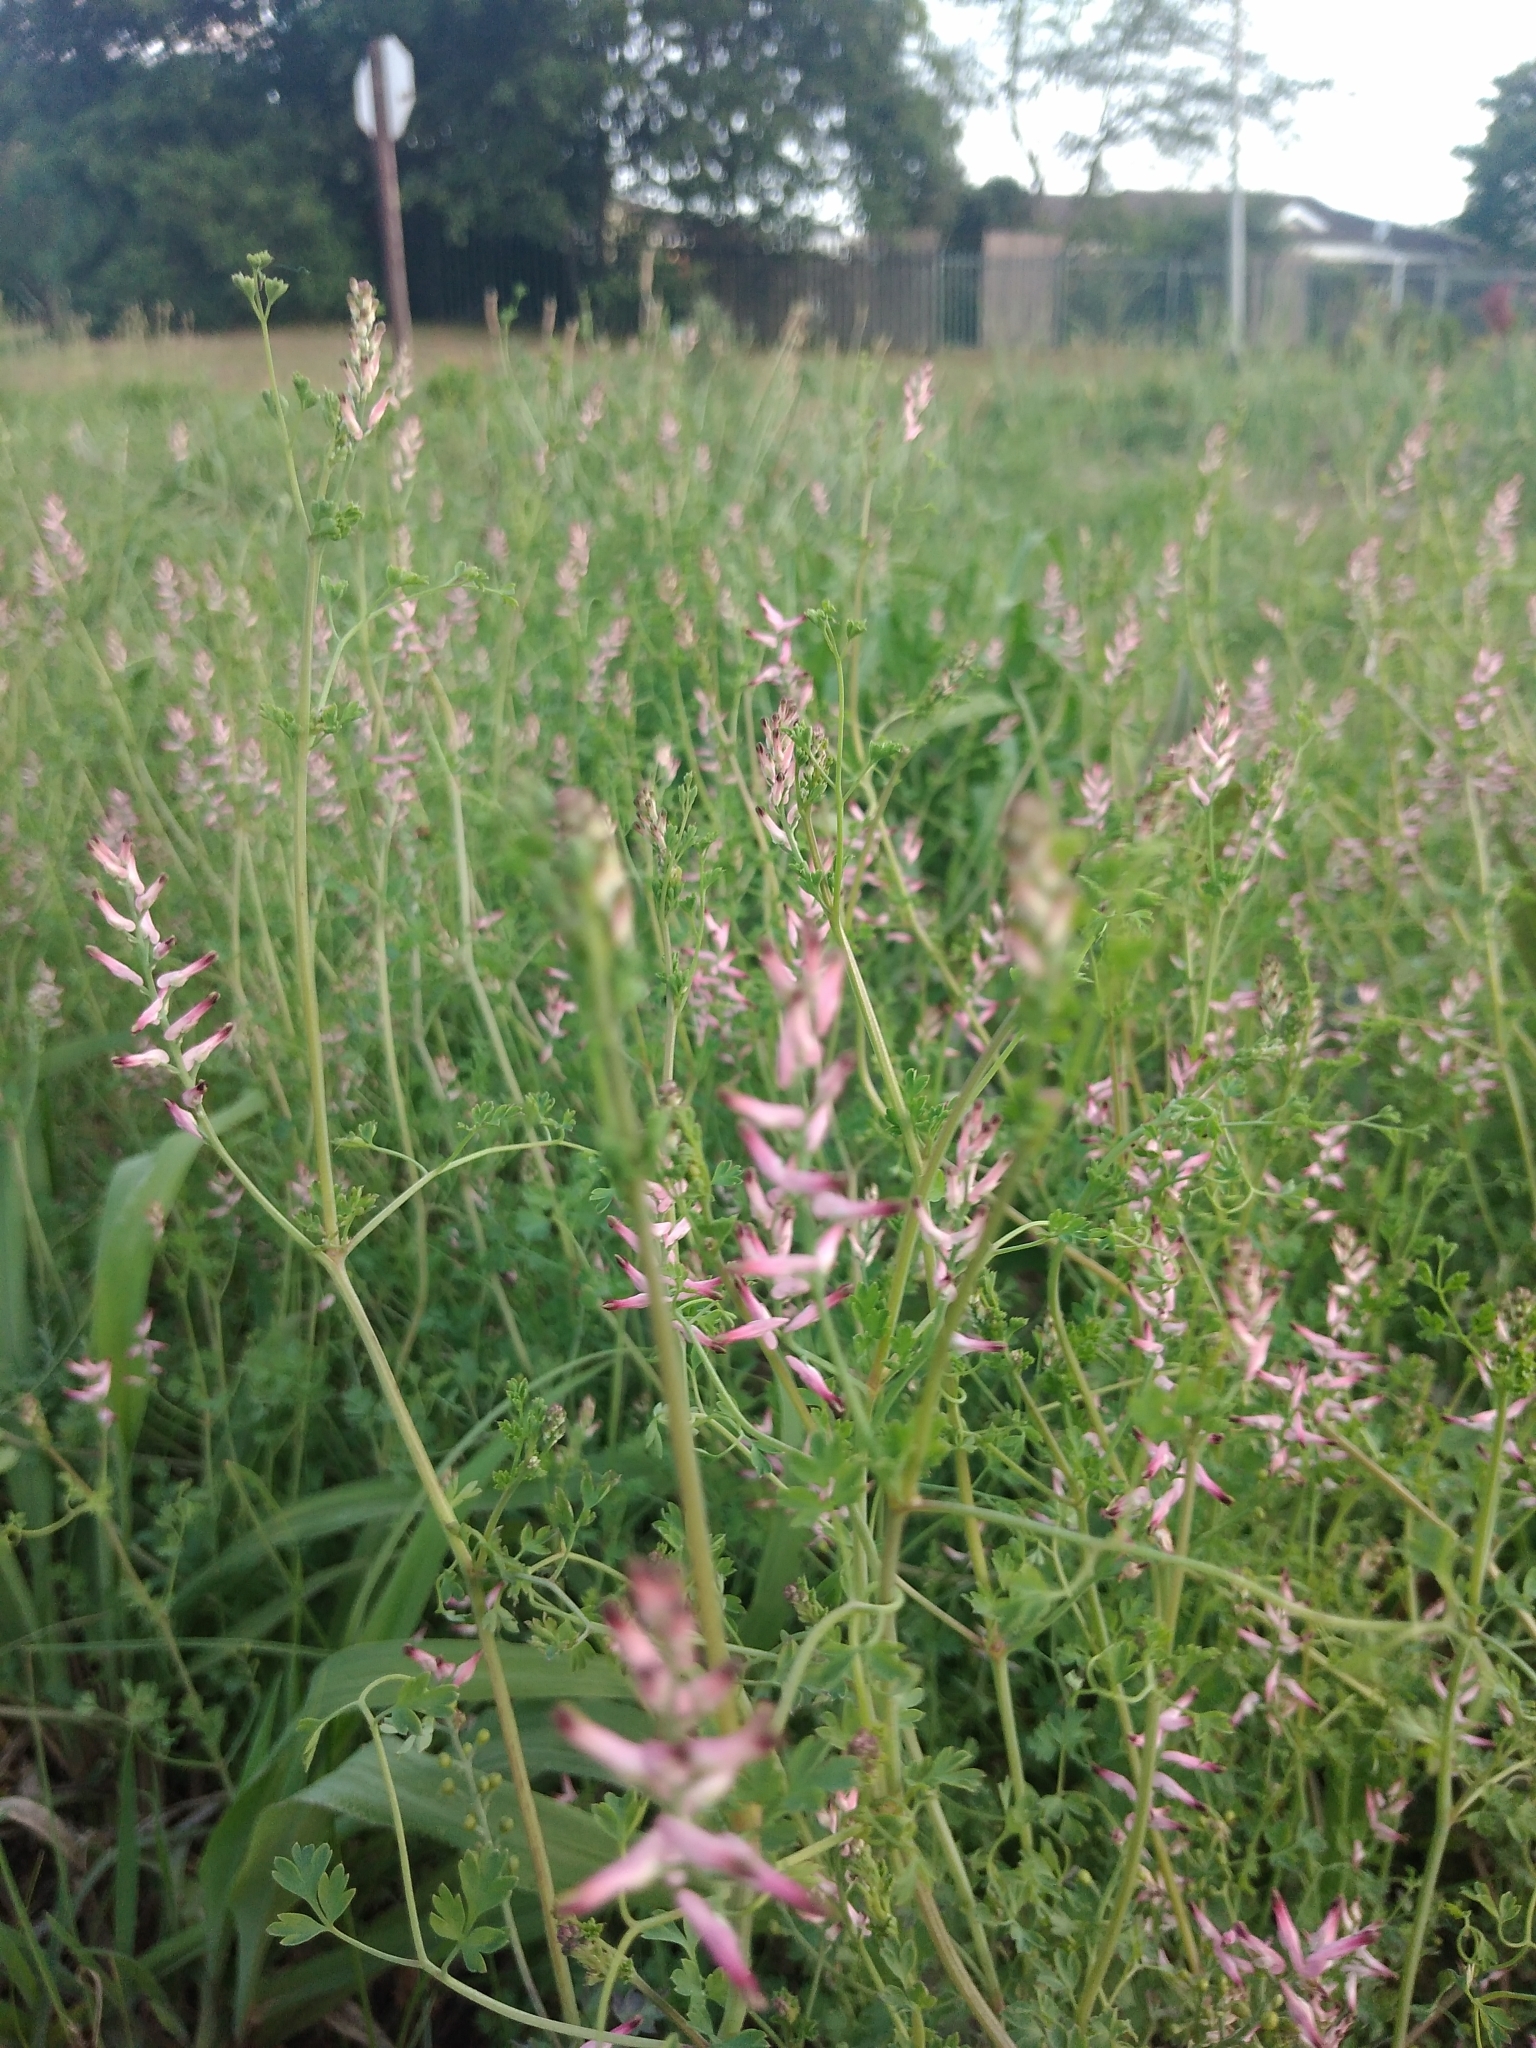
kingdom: Plantae
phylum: Tracheophyta
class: Magnoliopsida
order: Ranunculales
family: Papaveraceae
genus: Fumaria
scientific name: Fumaria muralis
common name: Common ramping-fumitory
